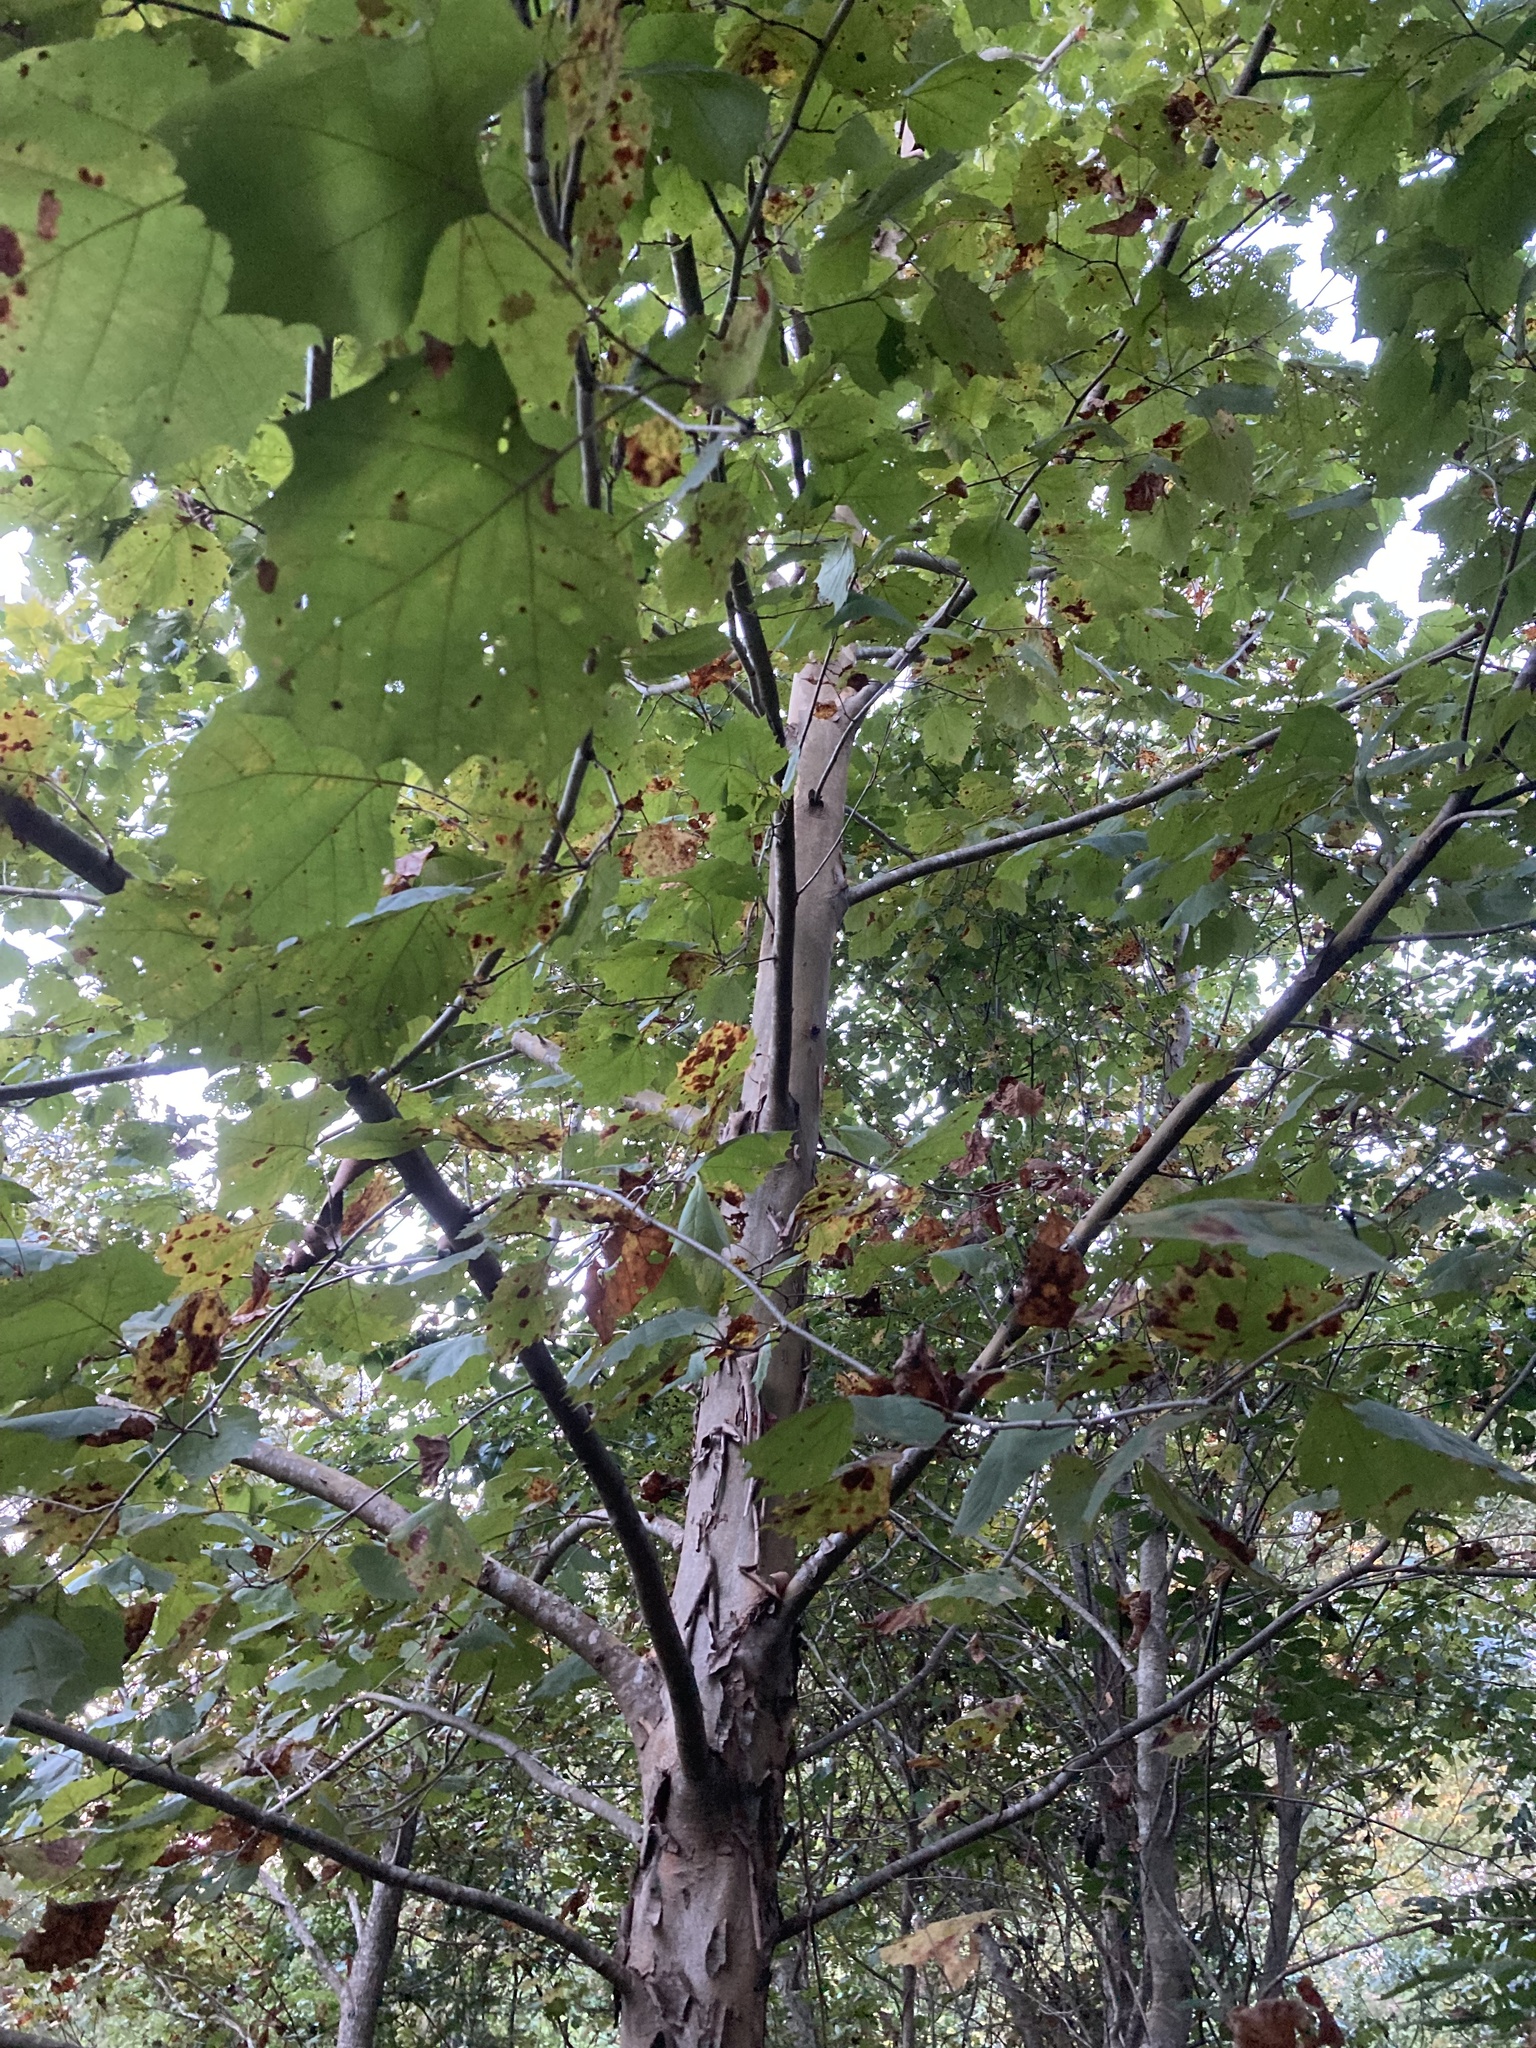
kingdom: Plantae
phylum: Tracheophyta
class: Magnoliopsida
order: Proteales
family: Platanaceae
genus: Platanus
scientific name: Platanus occidentalis
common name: American sycamore
